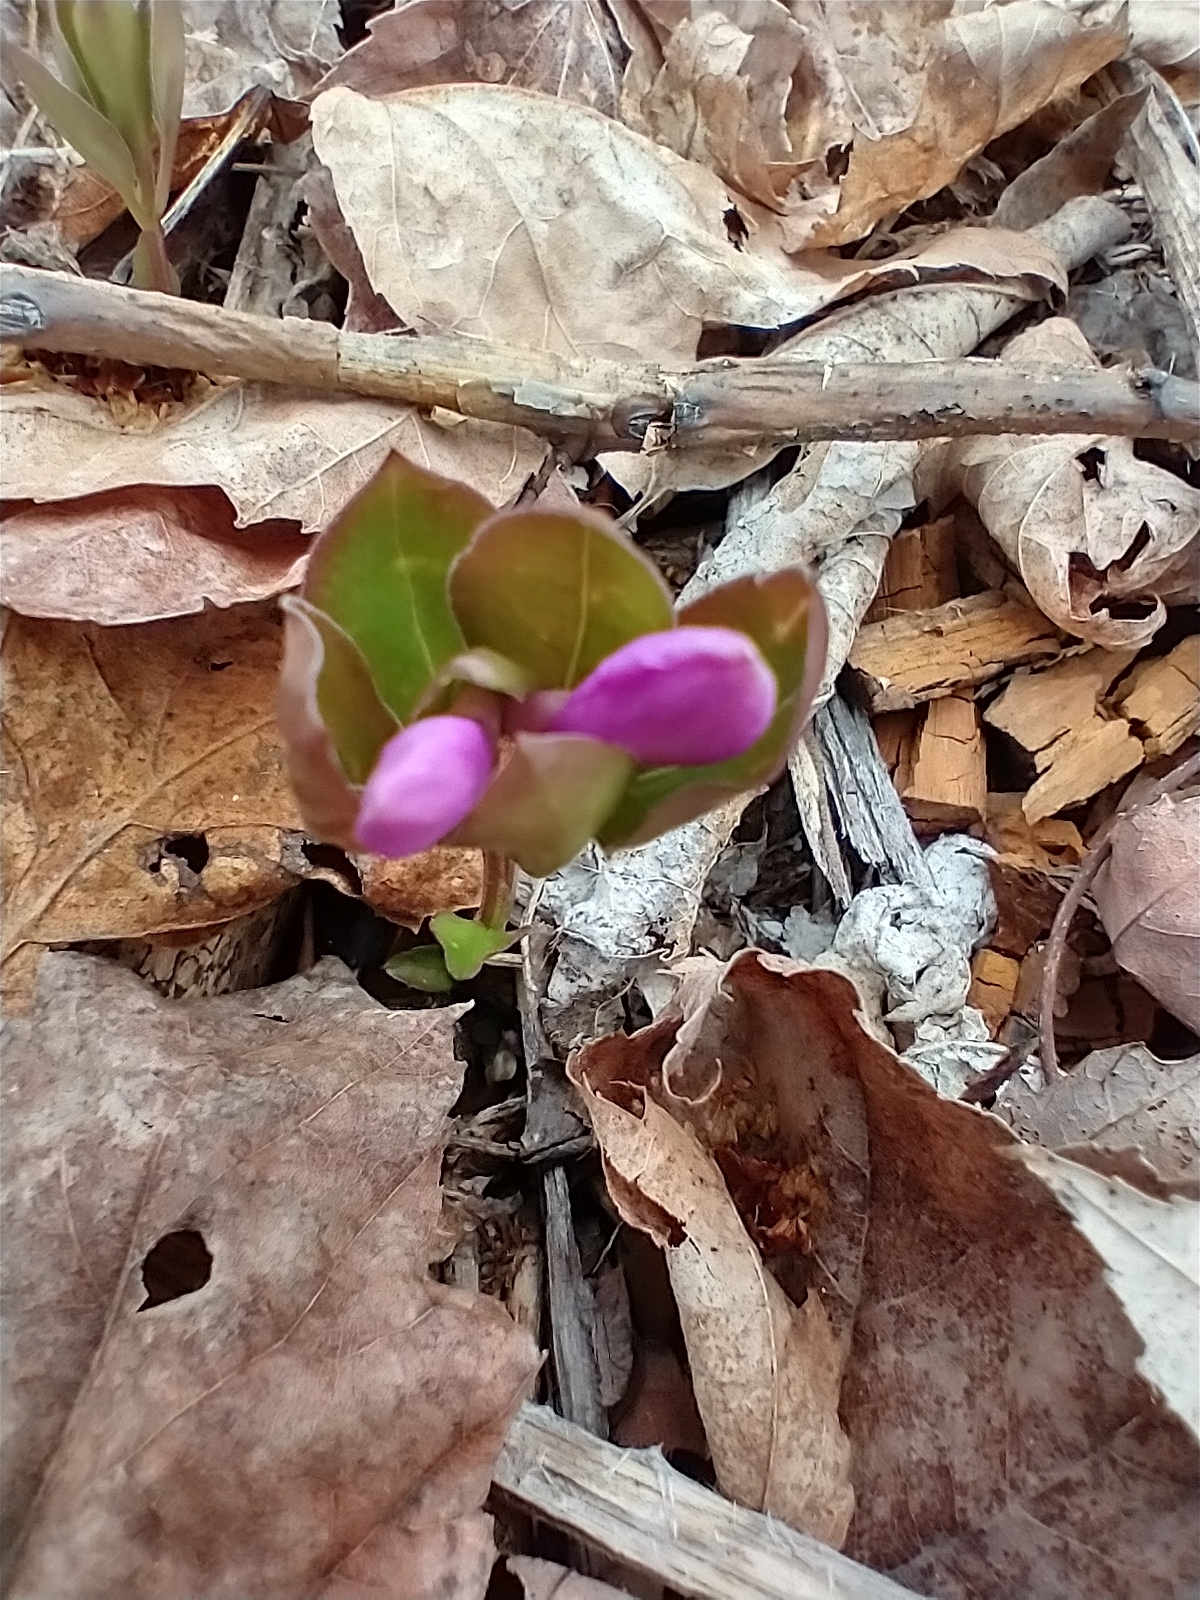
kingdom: Plantae
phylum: Tracheophyta
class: Magnoliopsida
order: Fabales
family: Polygalaceae
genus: Polygaloides
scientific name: Polygaloides paucifolia
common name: Bird-on-the-wing
